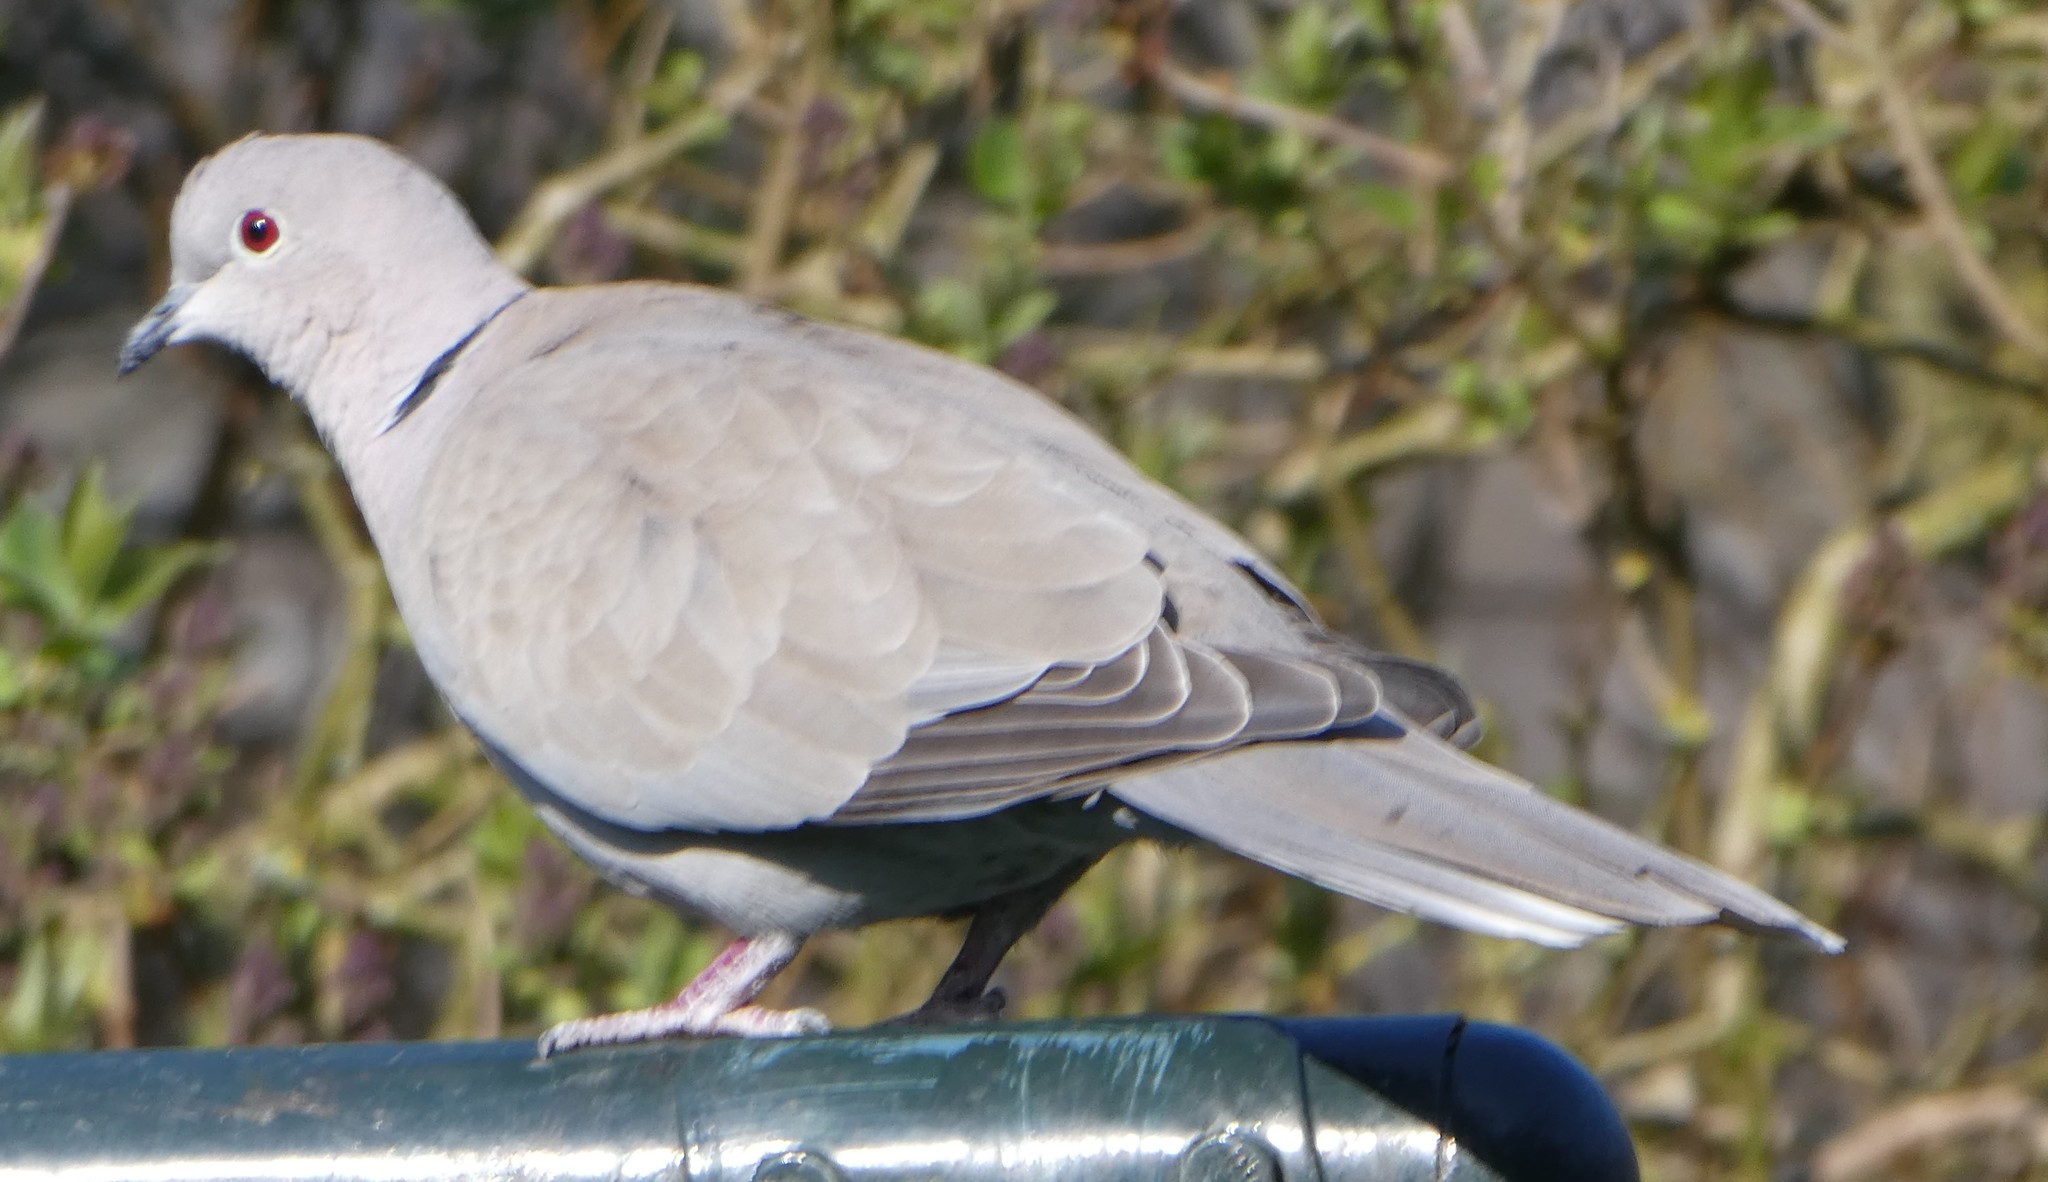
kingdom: Animalia
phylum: Chordata
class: Aves
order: Columbiformes
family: Columbidae
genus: Streptopelia
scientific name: Streptopelia decaocto
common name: Eurasian collared dove
